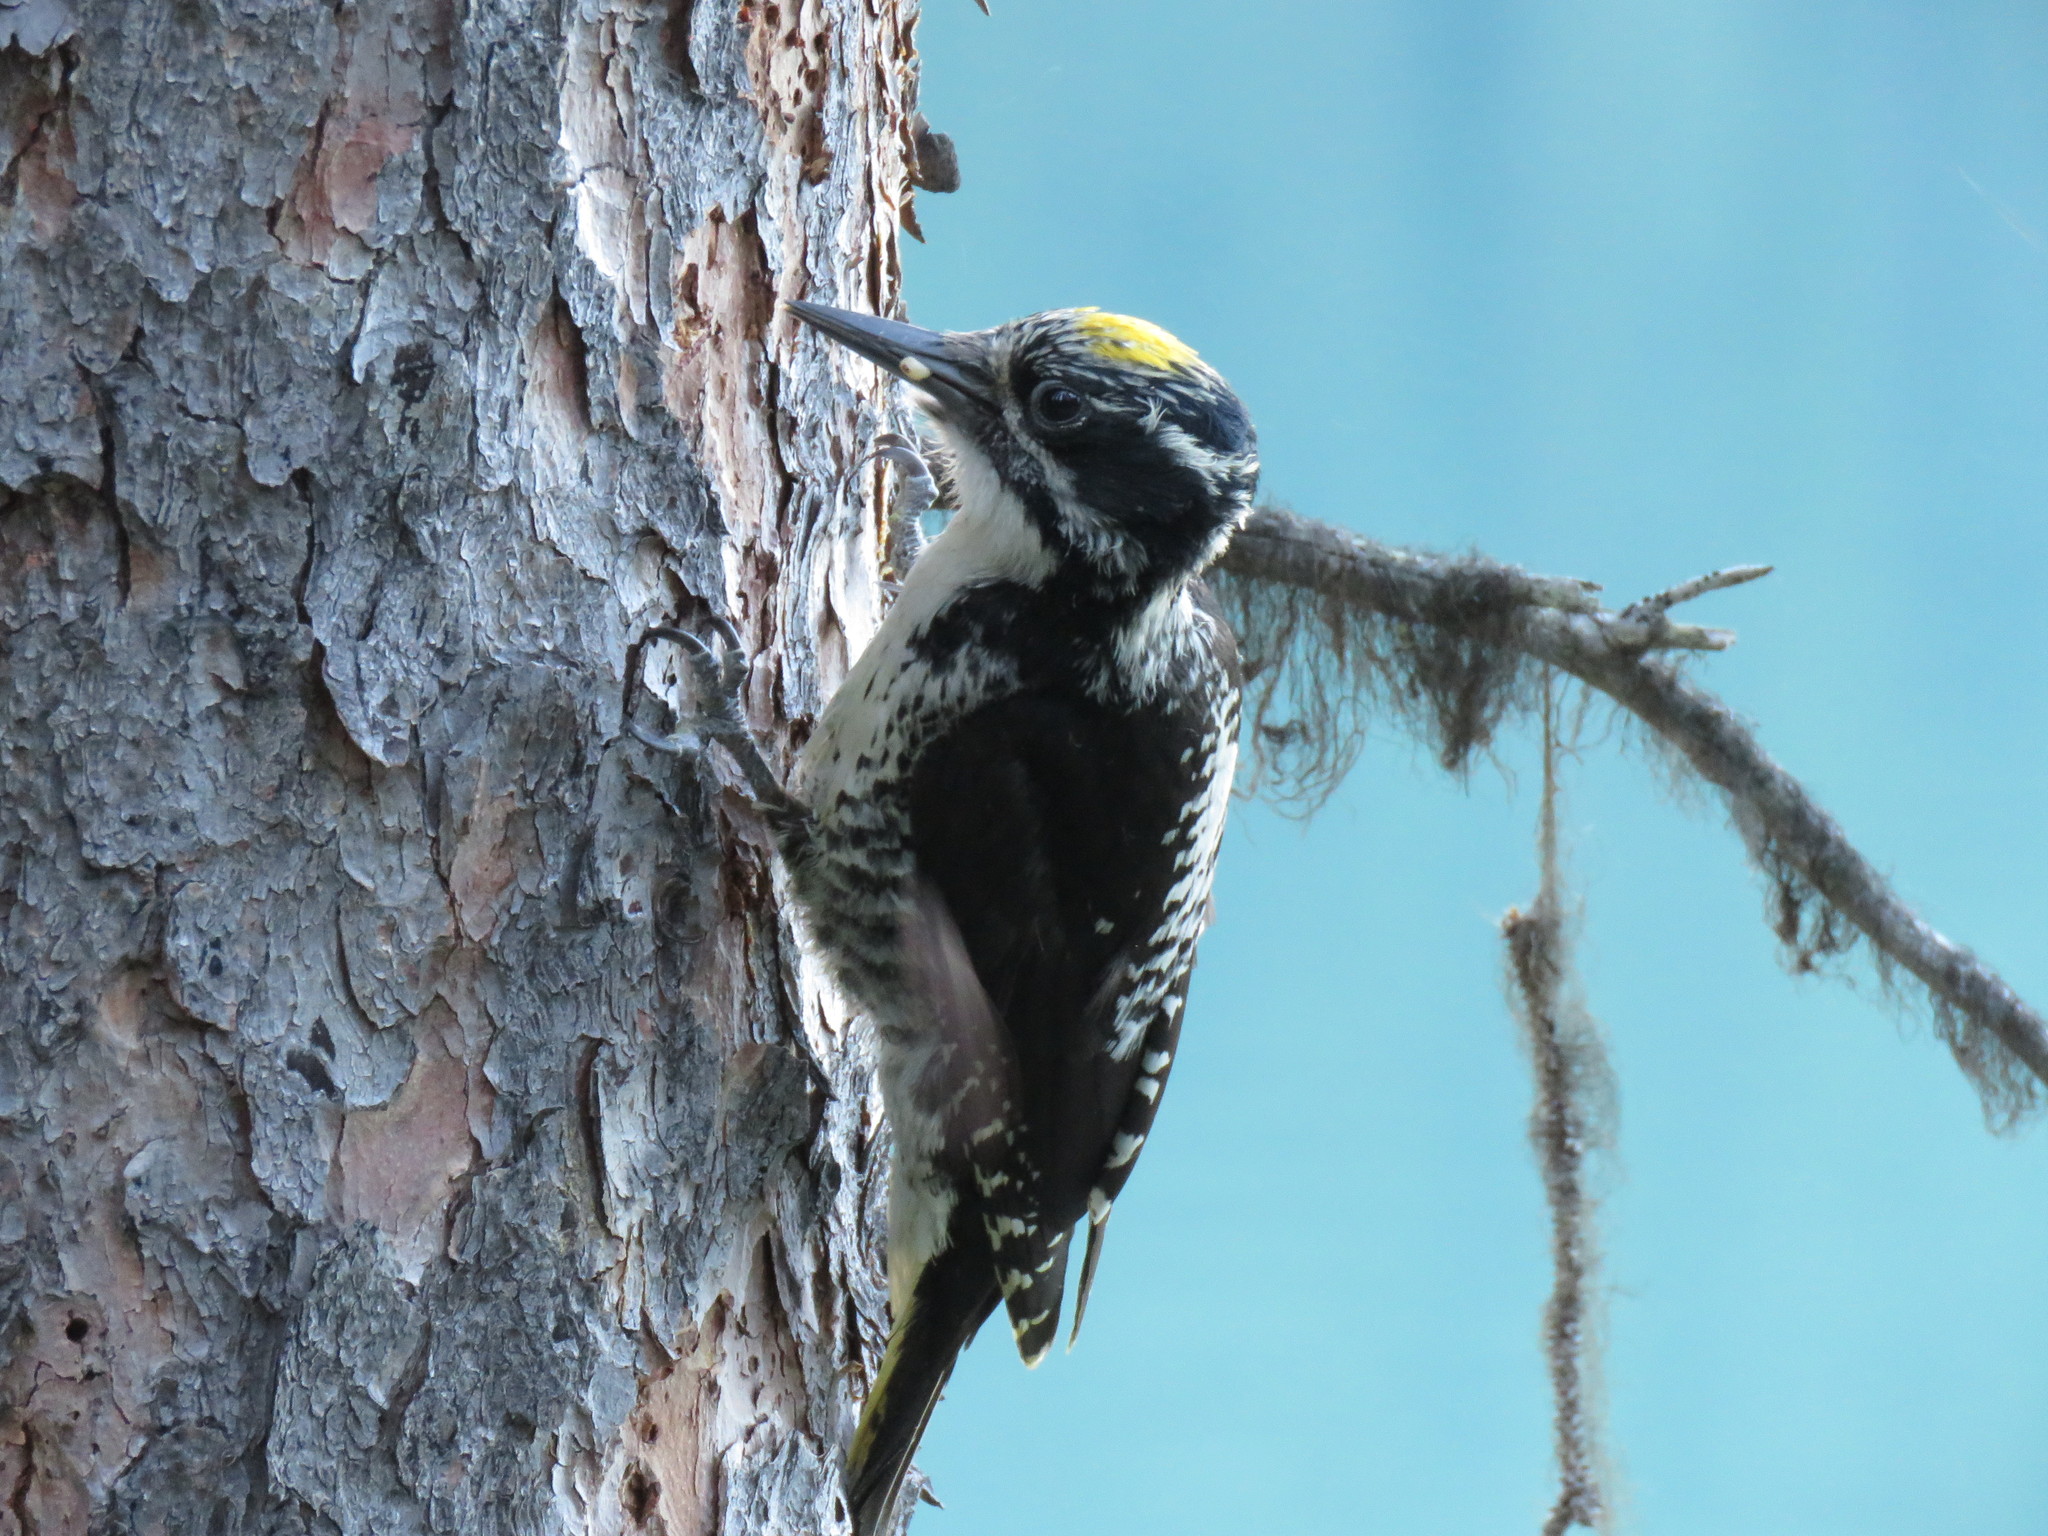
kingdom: Animalia
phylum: Chordata
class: Aves
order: Piciformes
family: Picidae
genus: Picoides
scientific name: Picoides dorsalis
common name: American three-toed woodpecker
